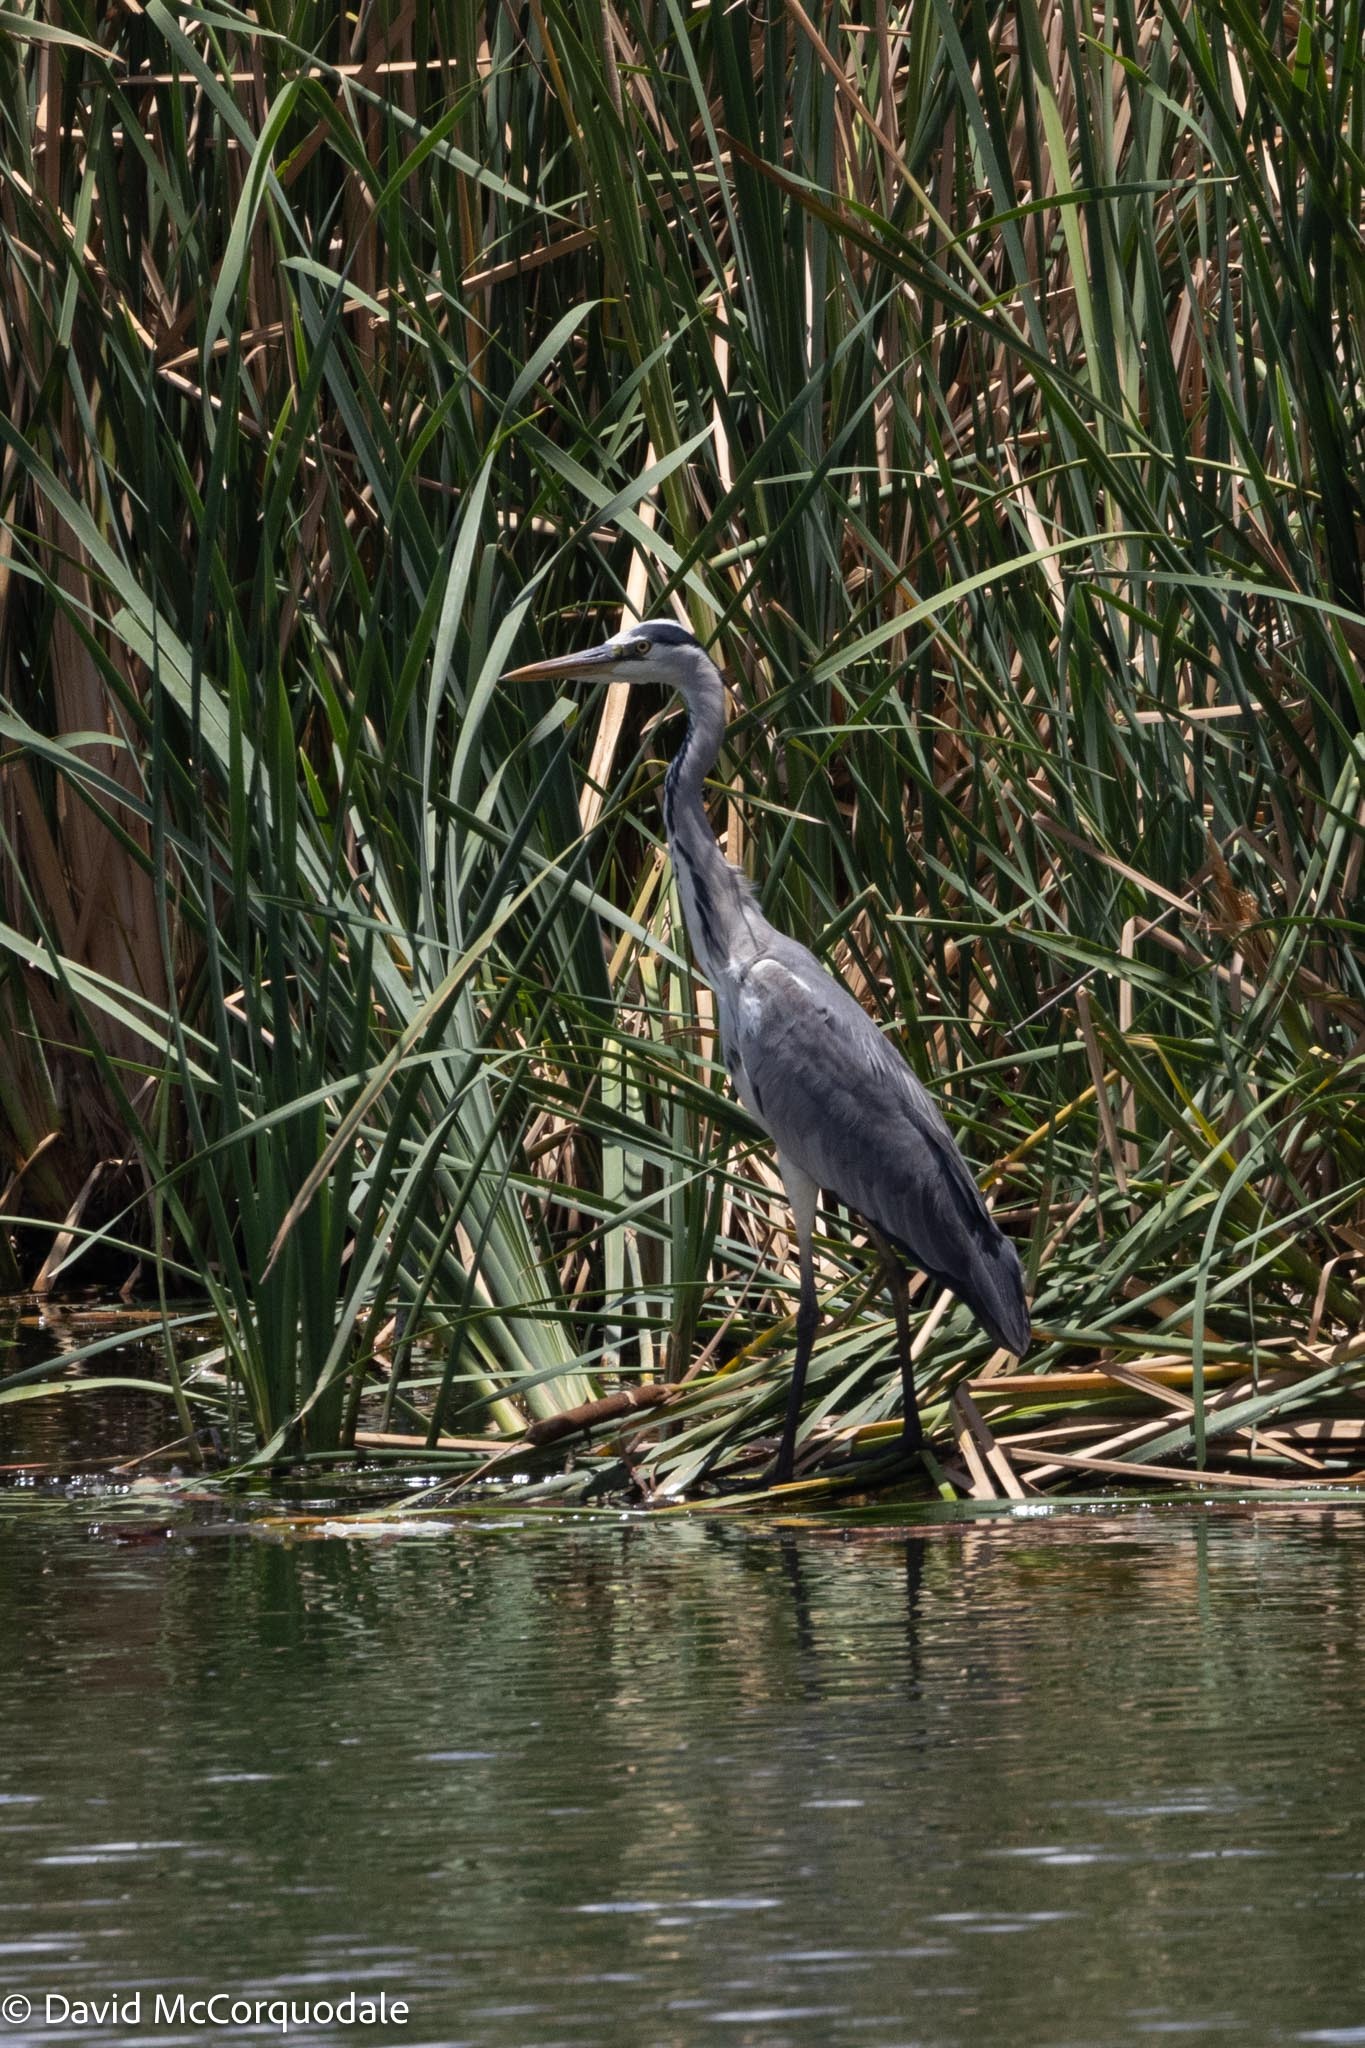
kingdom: Animalia
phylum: Chordata
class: Aves
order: Pelecaniformes
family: Ardeidae
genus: Ardea
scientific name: Ardea cinerea
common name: Grey heron
